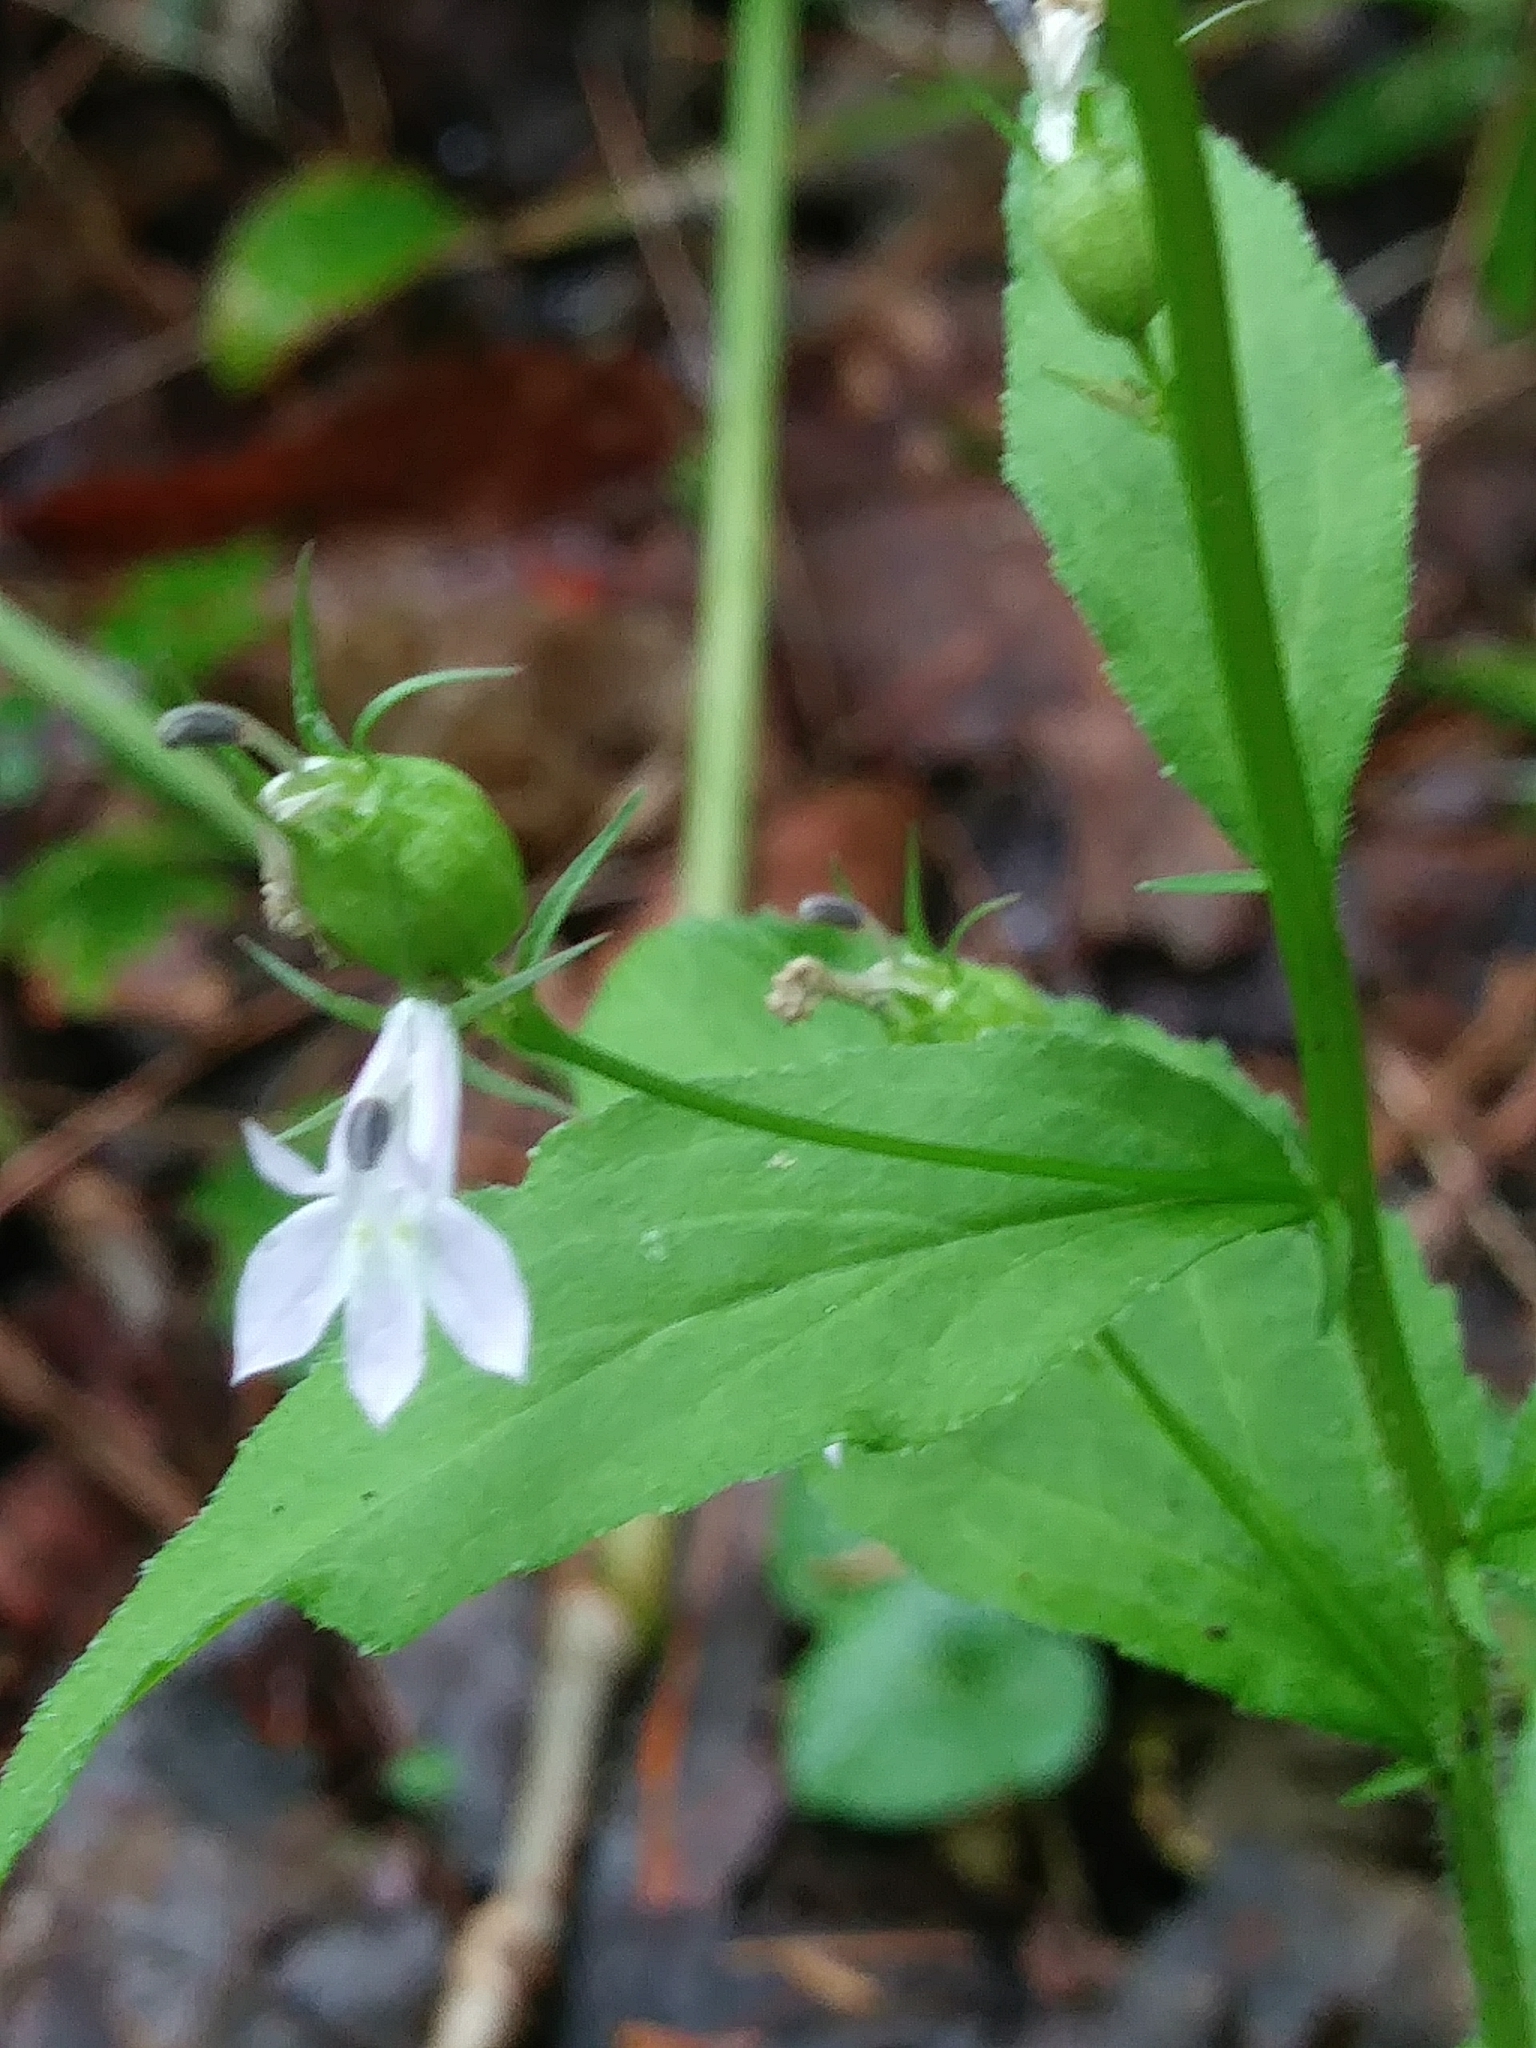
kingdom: Plantae
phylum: Tracheophyta
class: Magnoliopsida
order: Asterales
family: Campanulaceae
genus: Lobelia
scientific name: Lobelia inflata
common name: Indian tobacco
